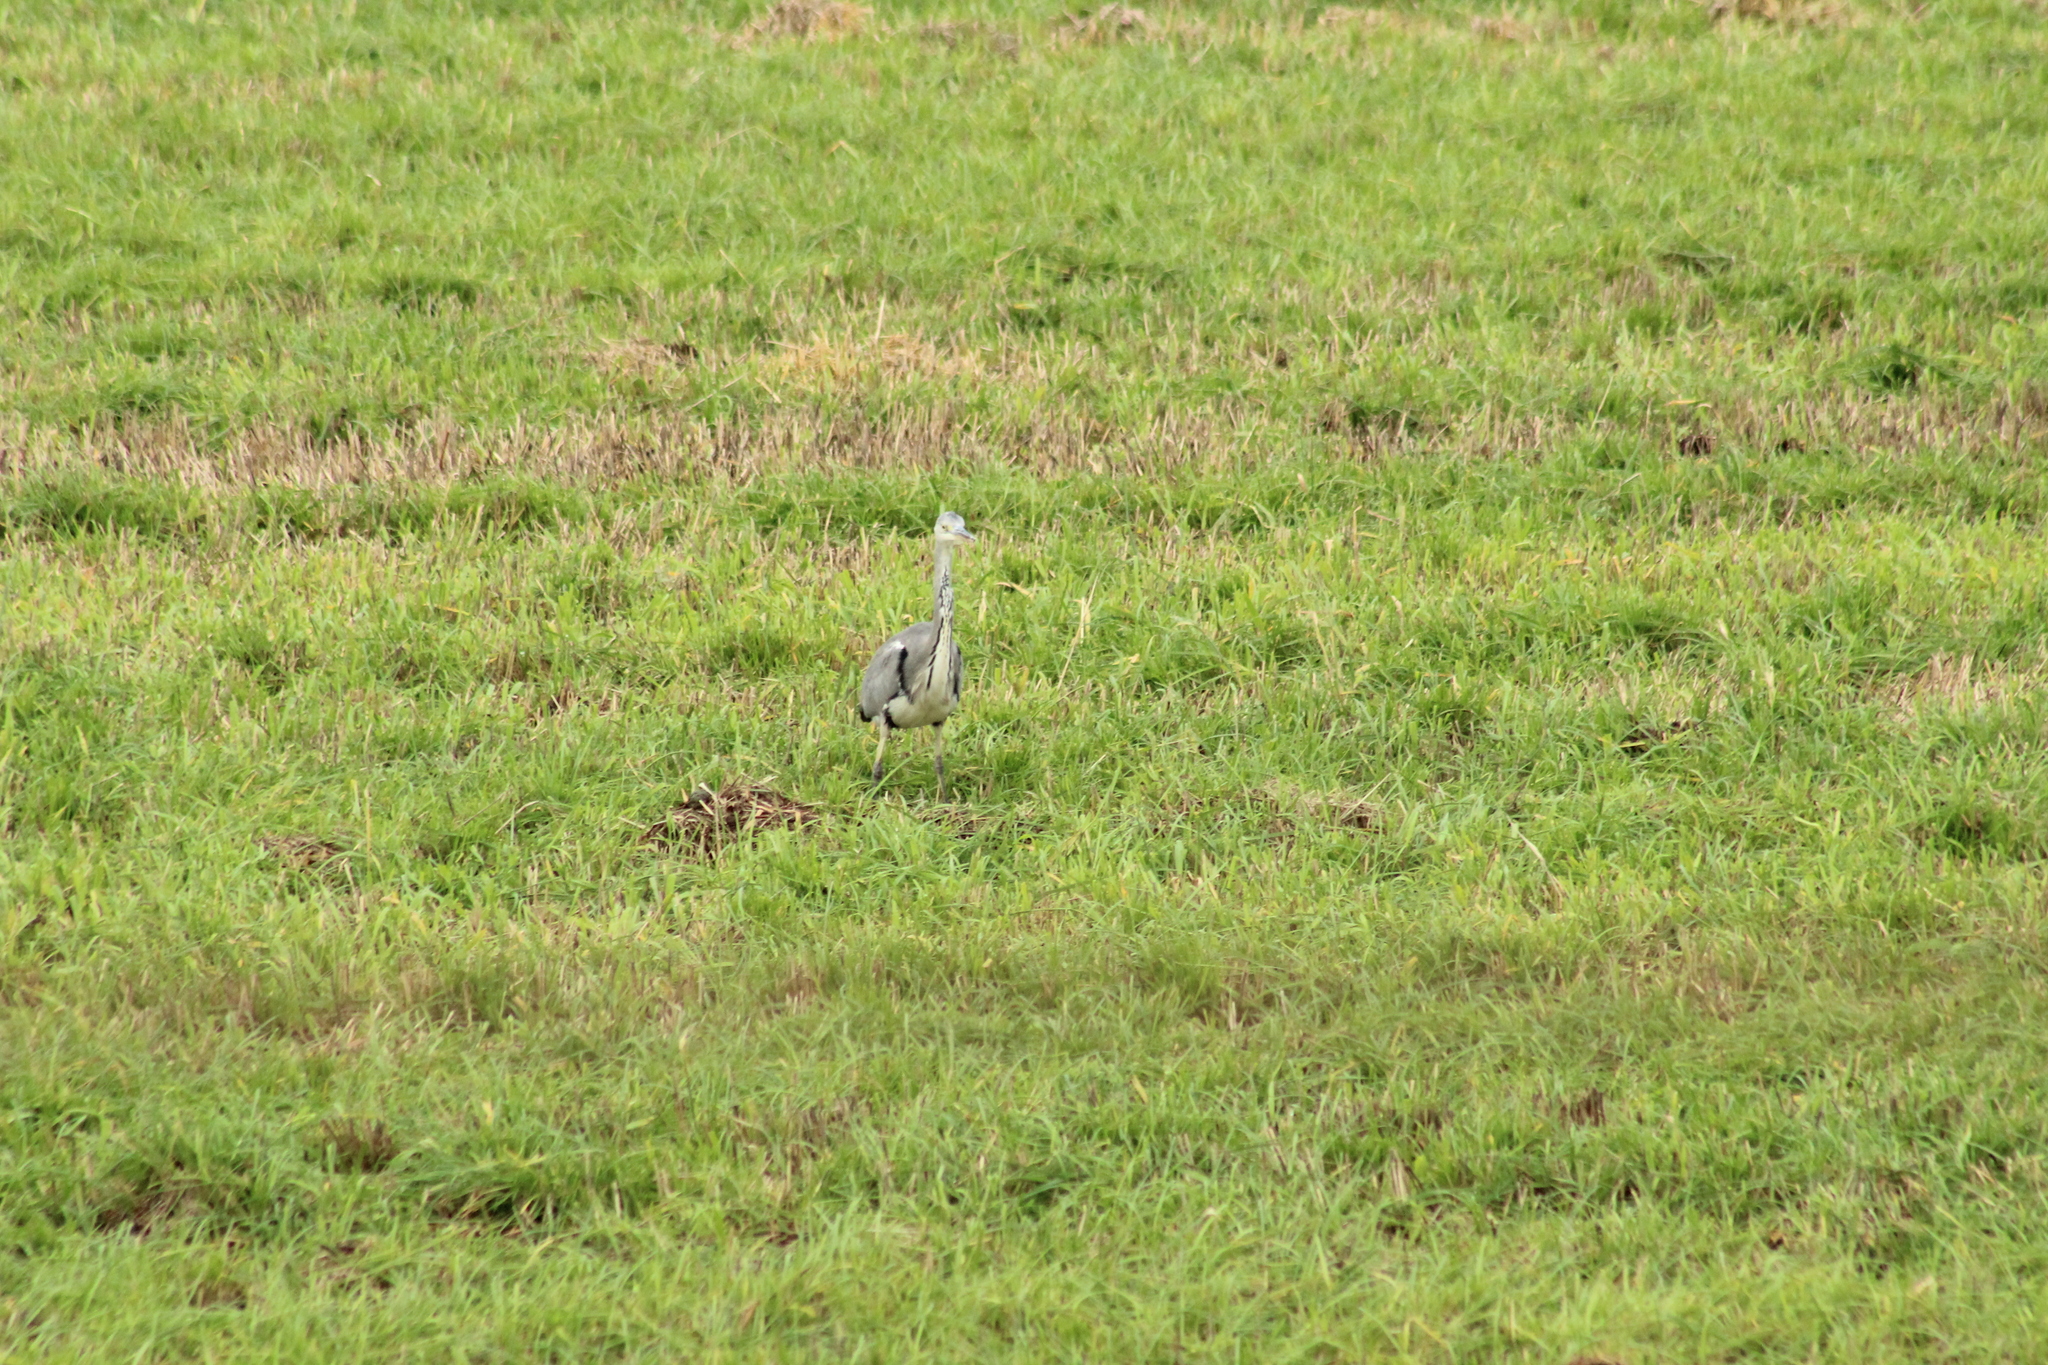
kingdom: Animalia
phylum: Chordata
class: Aves
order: Pelecaniformes
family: Ardeidae
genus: Ardea
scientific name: Ardea cinerea
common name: Grey heron
